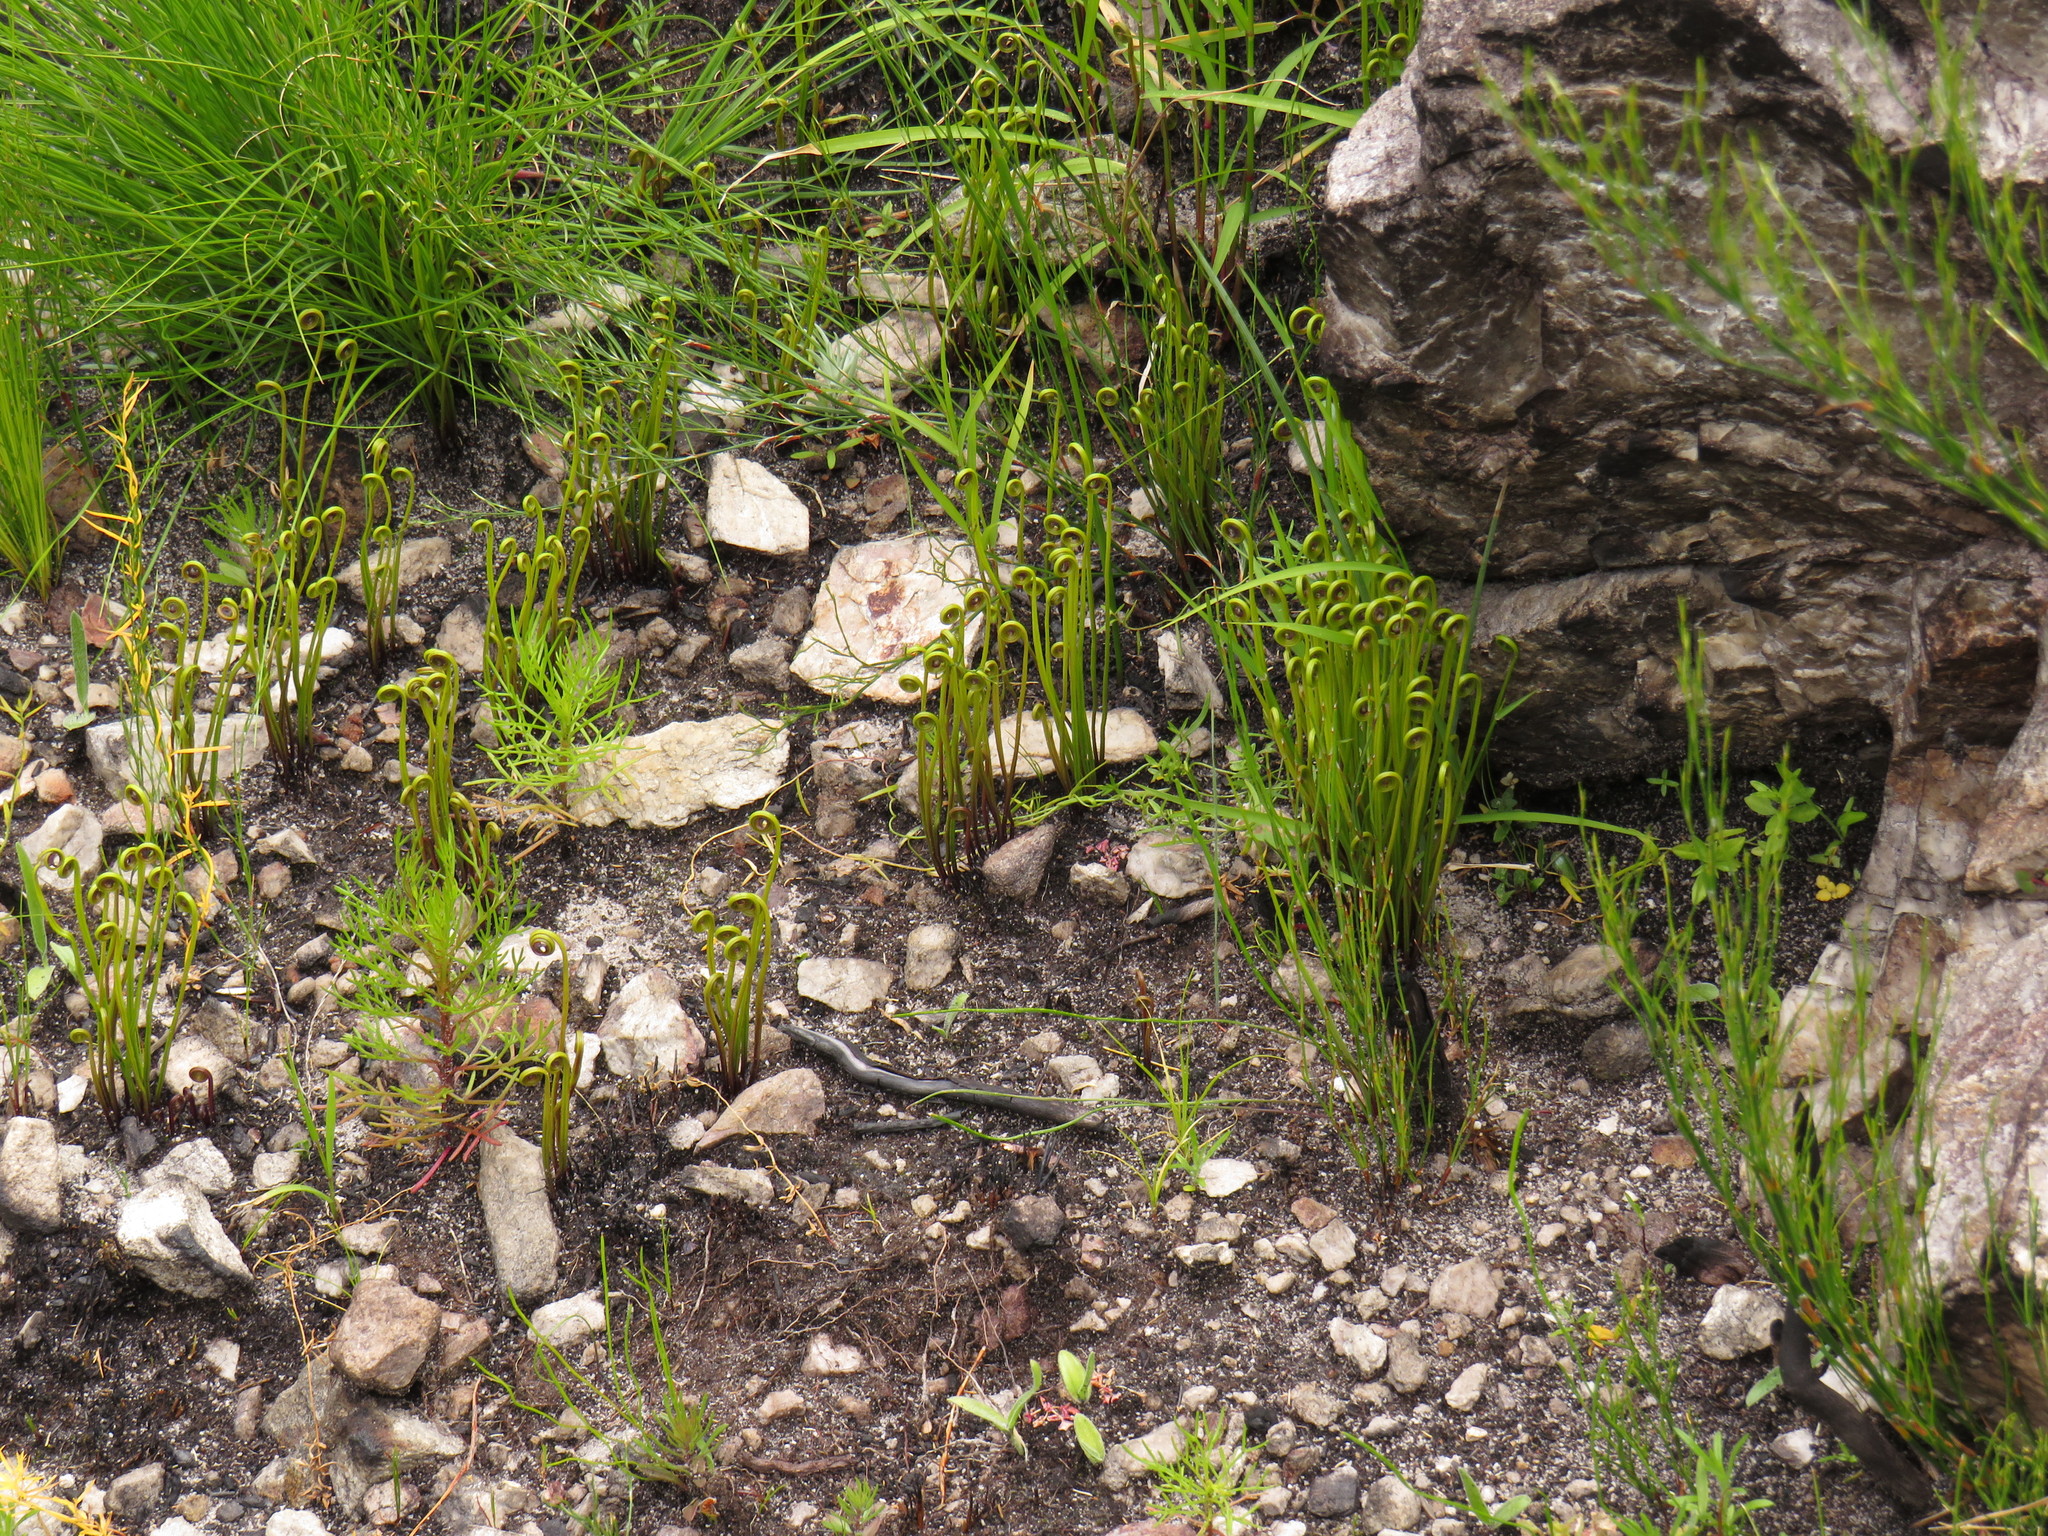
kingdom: Plantae
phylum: Tracheophyta
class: Polypodiopsida
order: Schizaeales
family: Schizaeaceae
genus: Schizaea
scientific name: Schizaea pectinata
